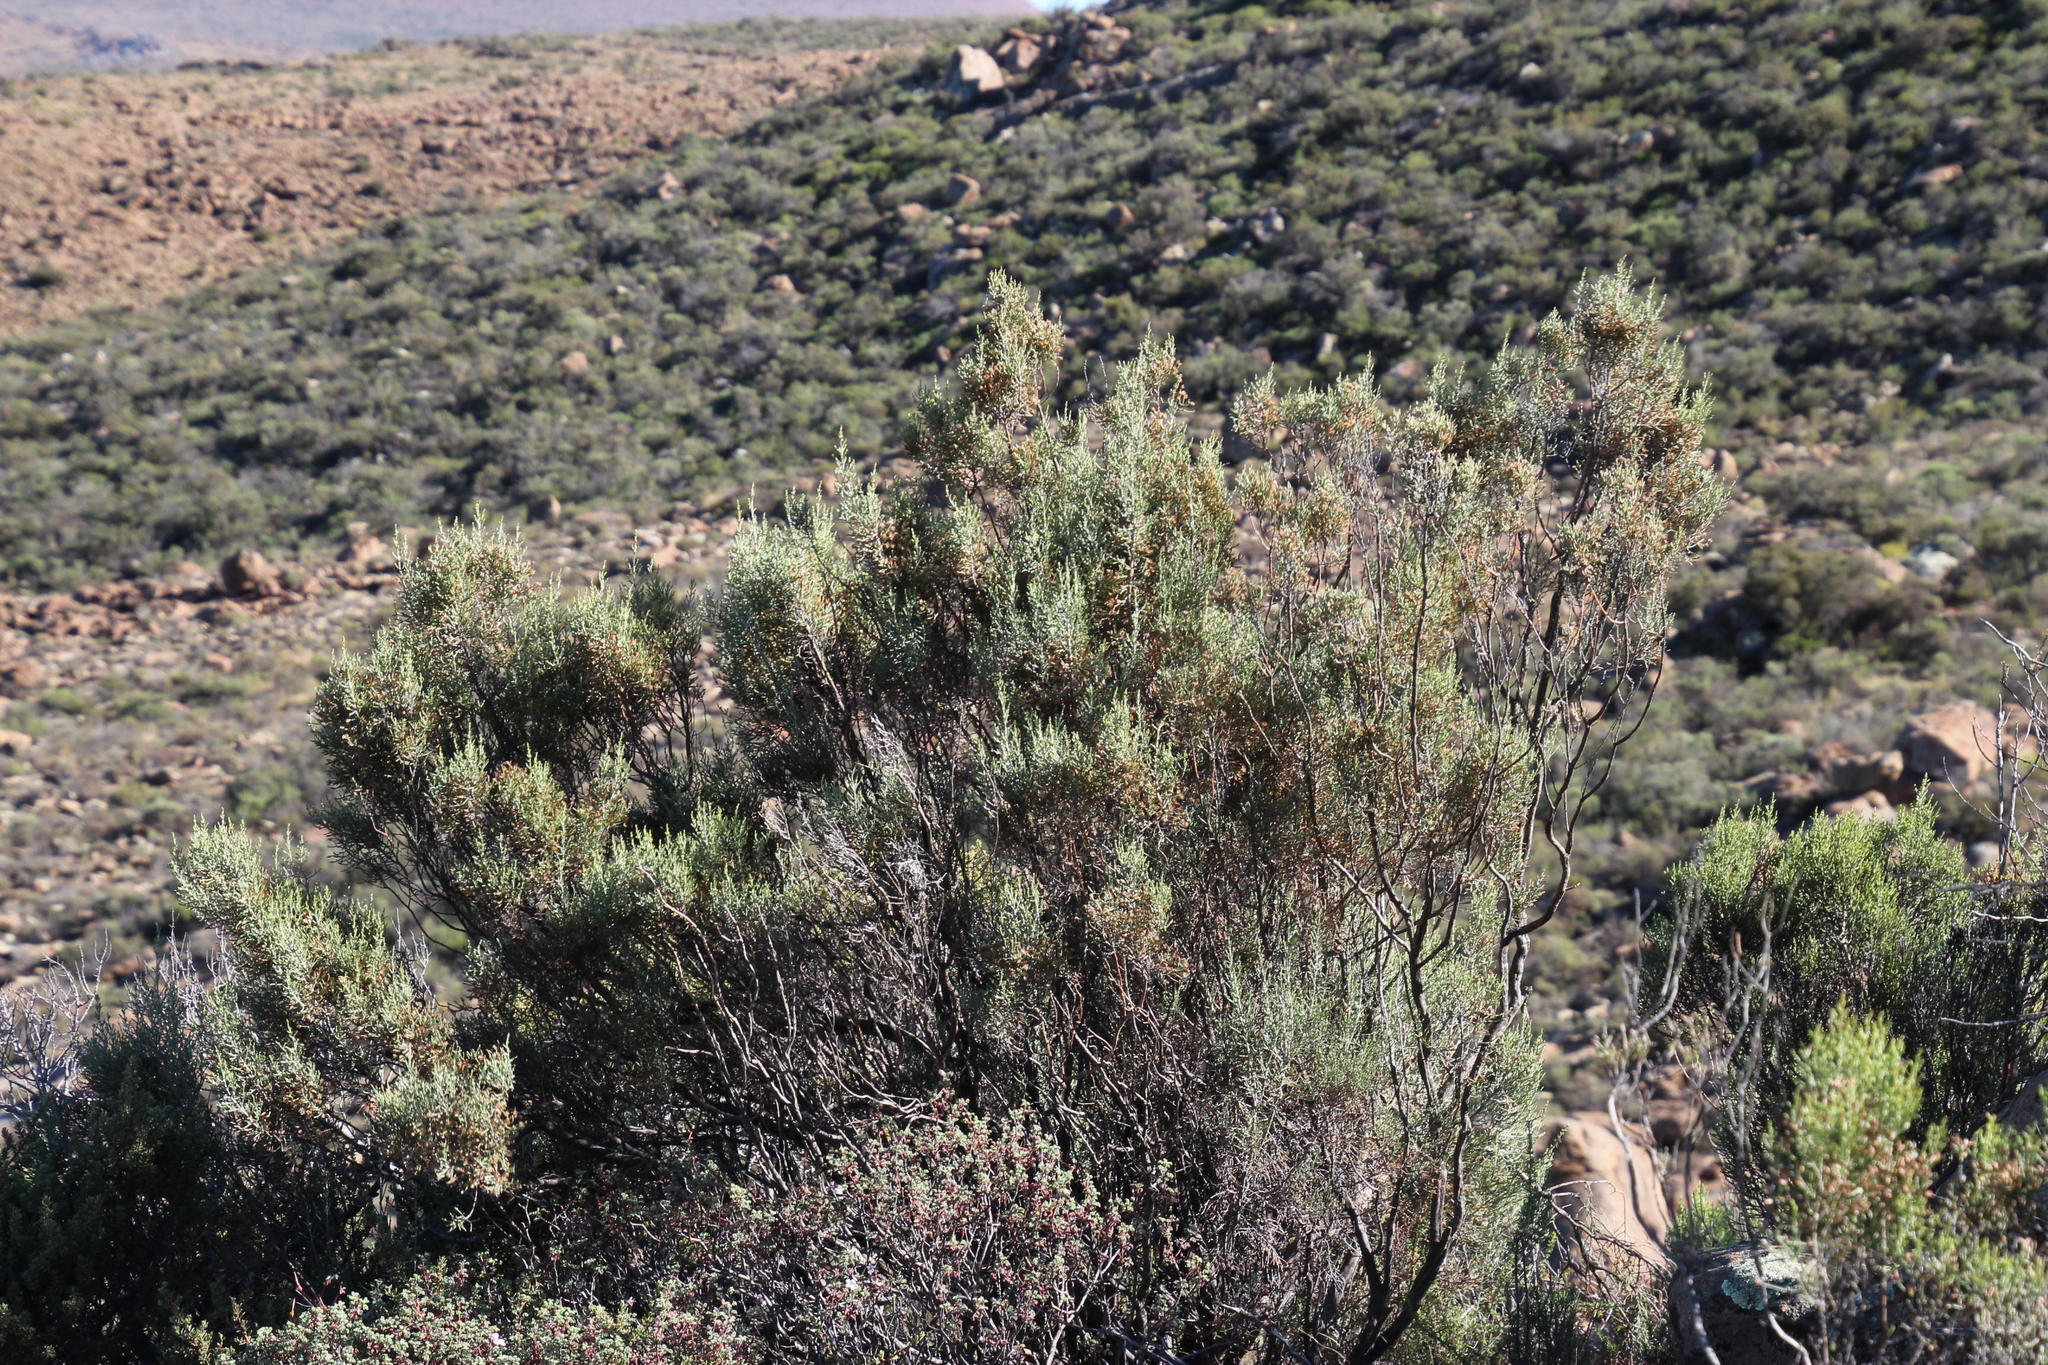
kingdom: Plantae
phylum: Tracheophyta
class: Magnoliopsida
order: Asterales
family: Asteraceae
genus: Dicerothamnus
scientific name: Dicerothamnus rhinocerotis
